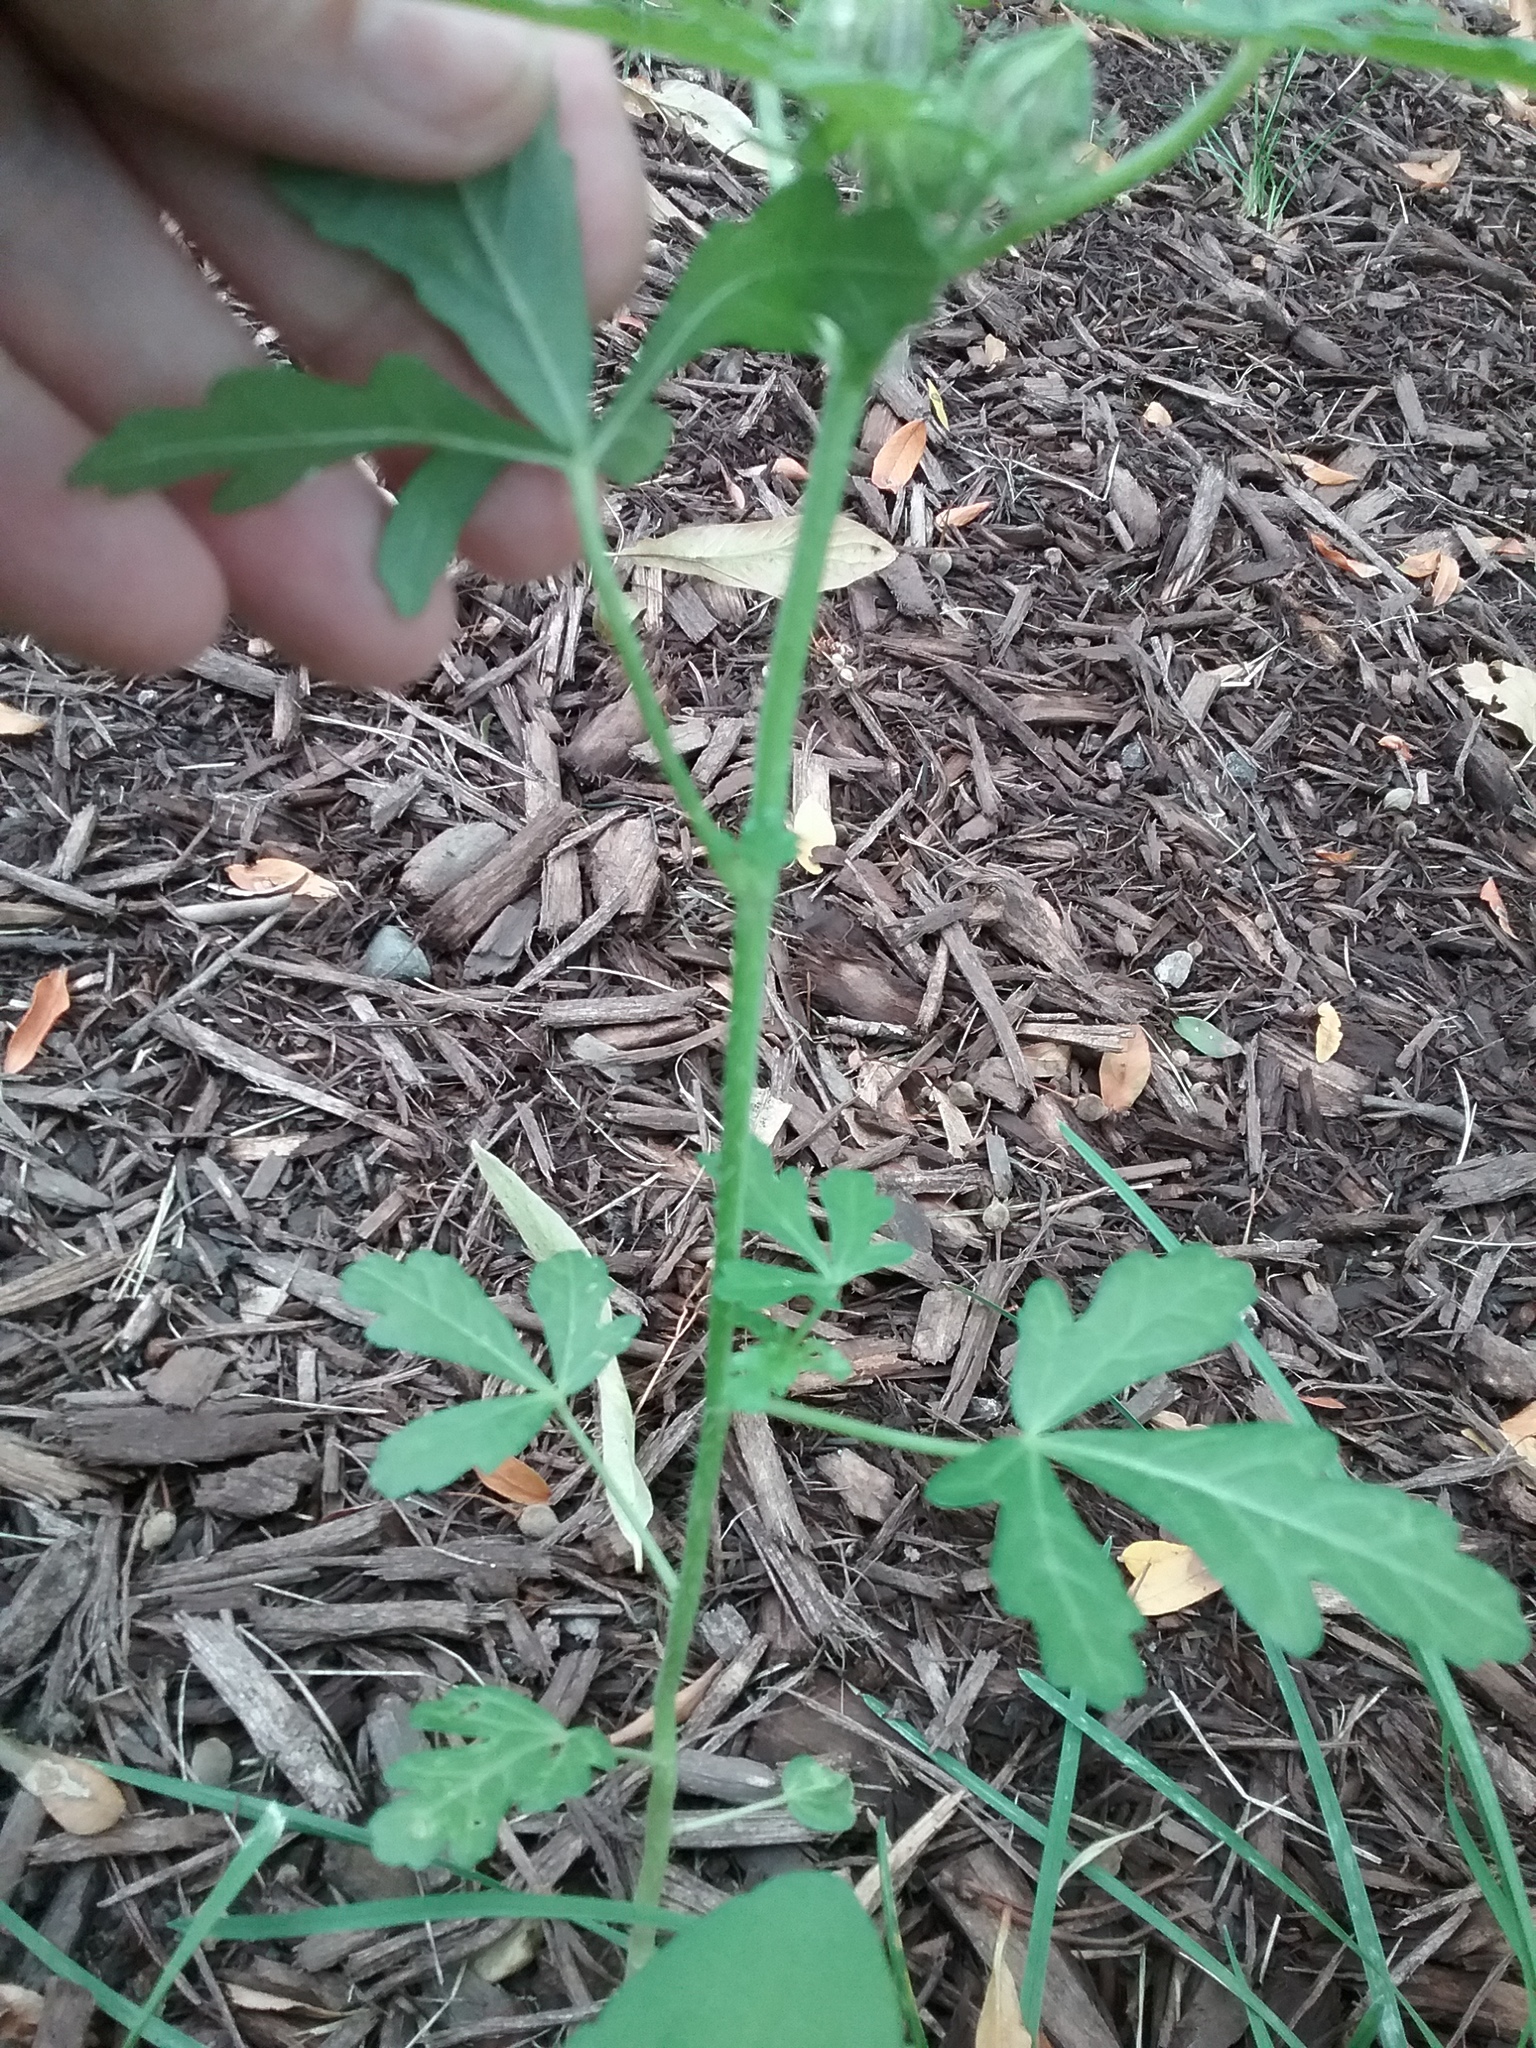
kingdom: Plantae
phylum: Tracheophyta
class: Magnoliopsida
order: Malvales
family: Malvaceae
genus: Hibiscus
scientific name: Hibiscus trionum
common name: Bladder ketmia
